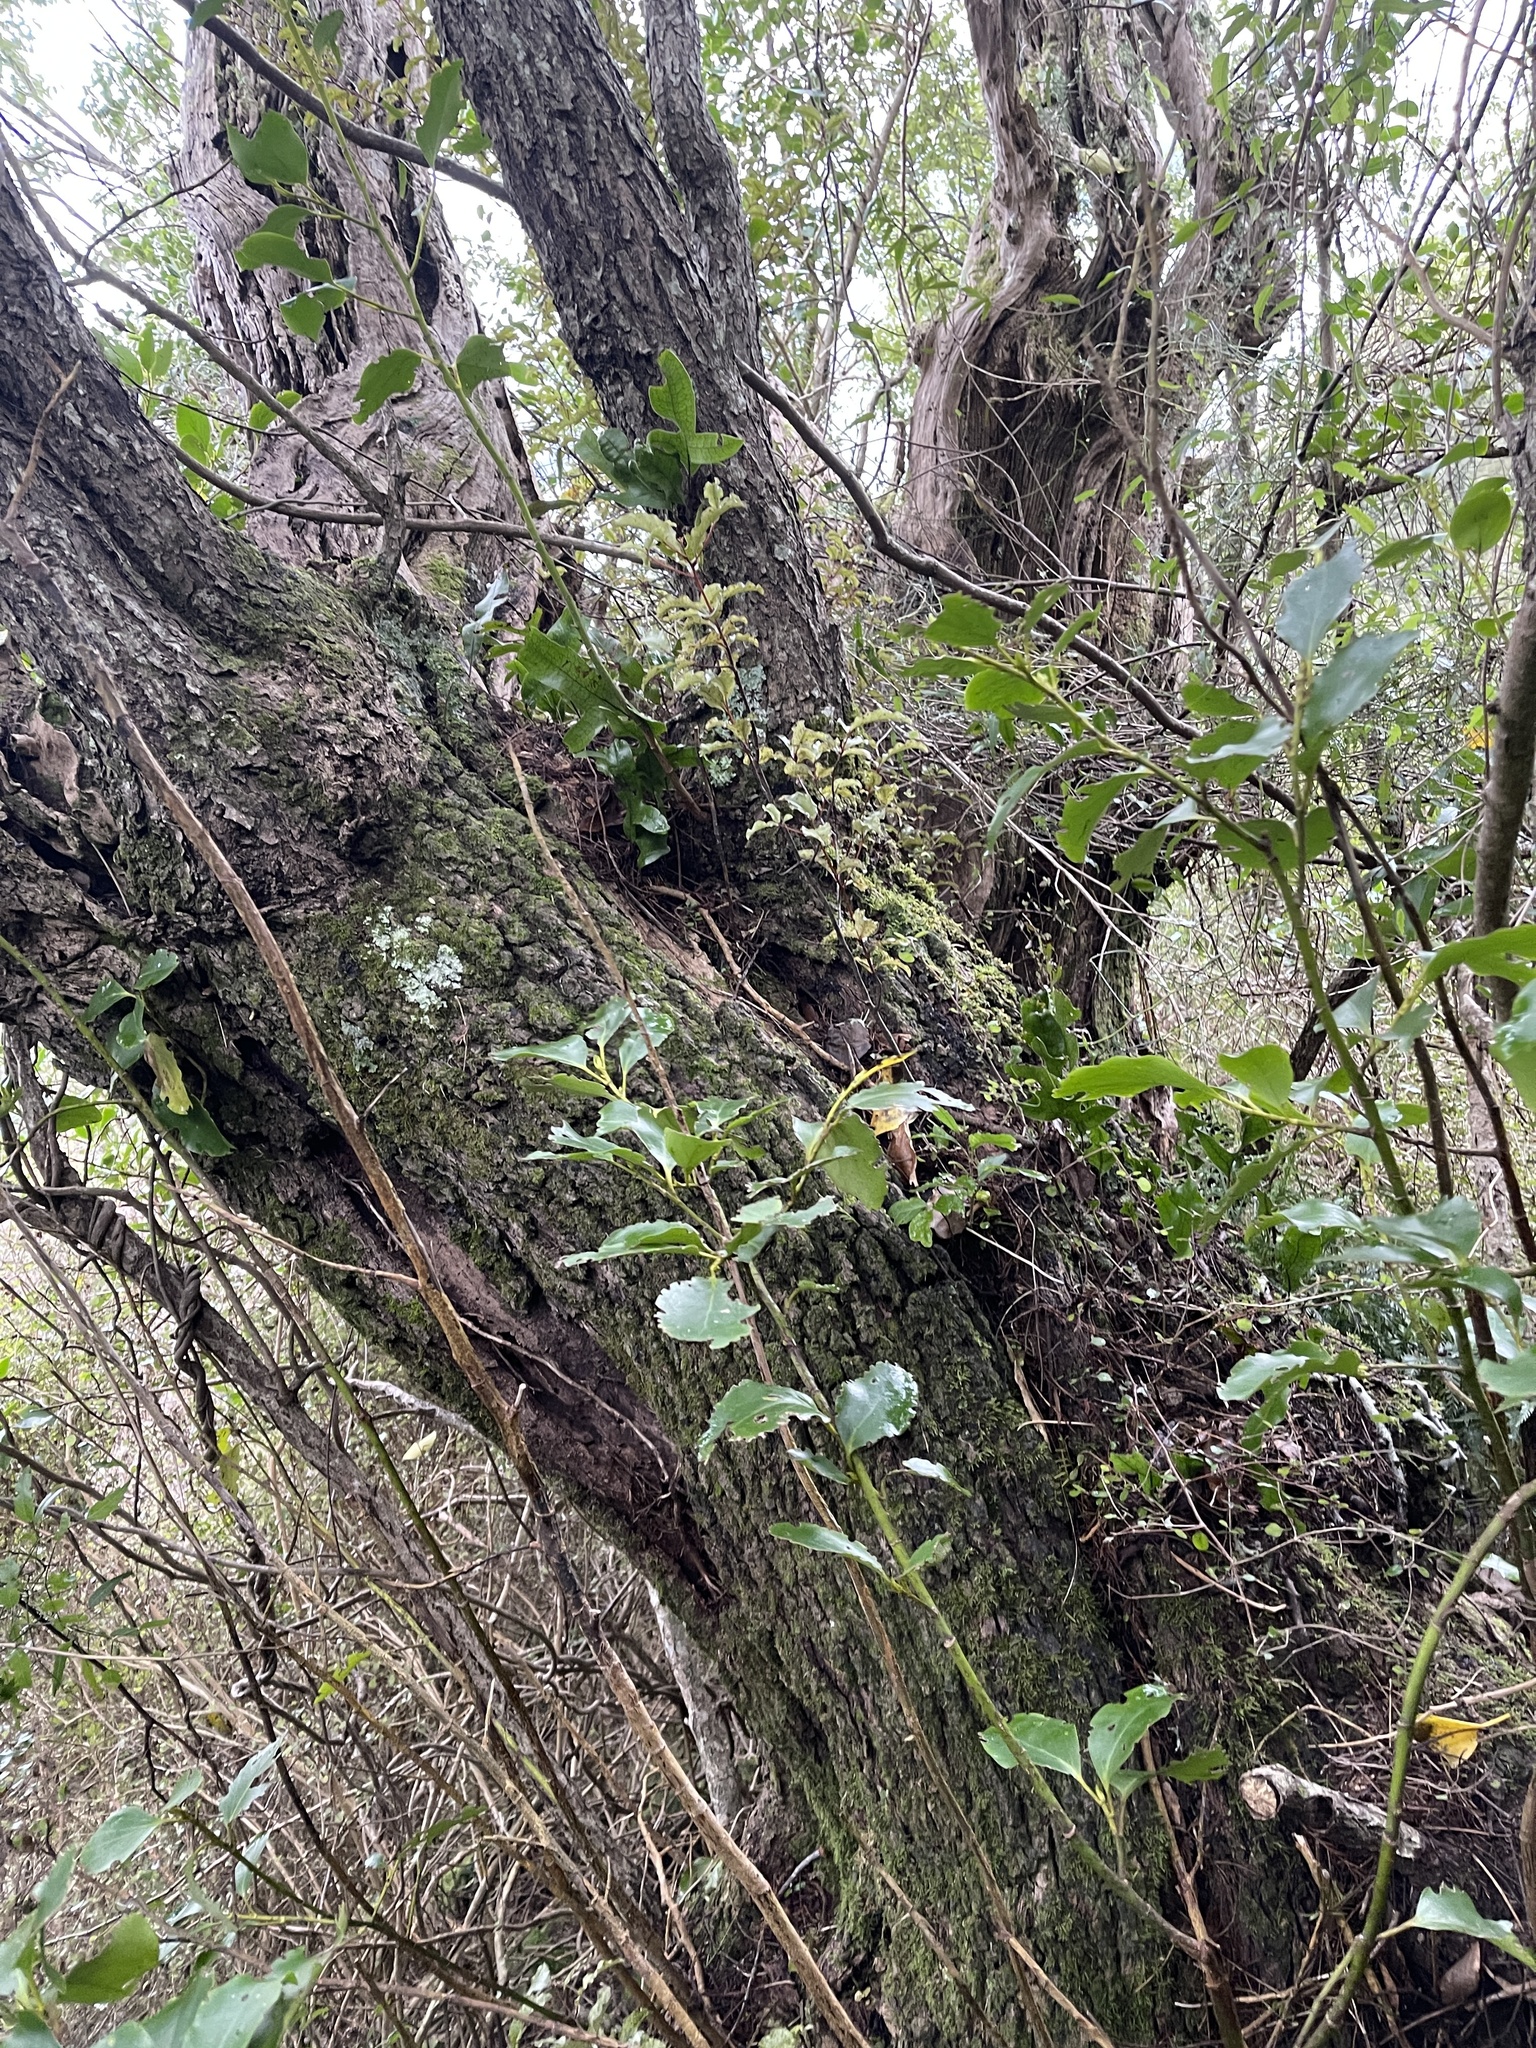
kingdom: Plantae
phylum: Tracheophyta
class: Magnoliopsida
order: Apiales
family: Griseliniaceae
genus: Griselinia
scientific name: Griselinia littoralis
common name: New zealand broadleaf
